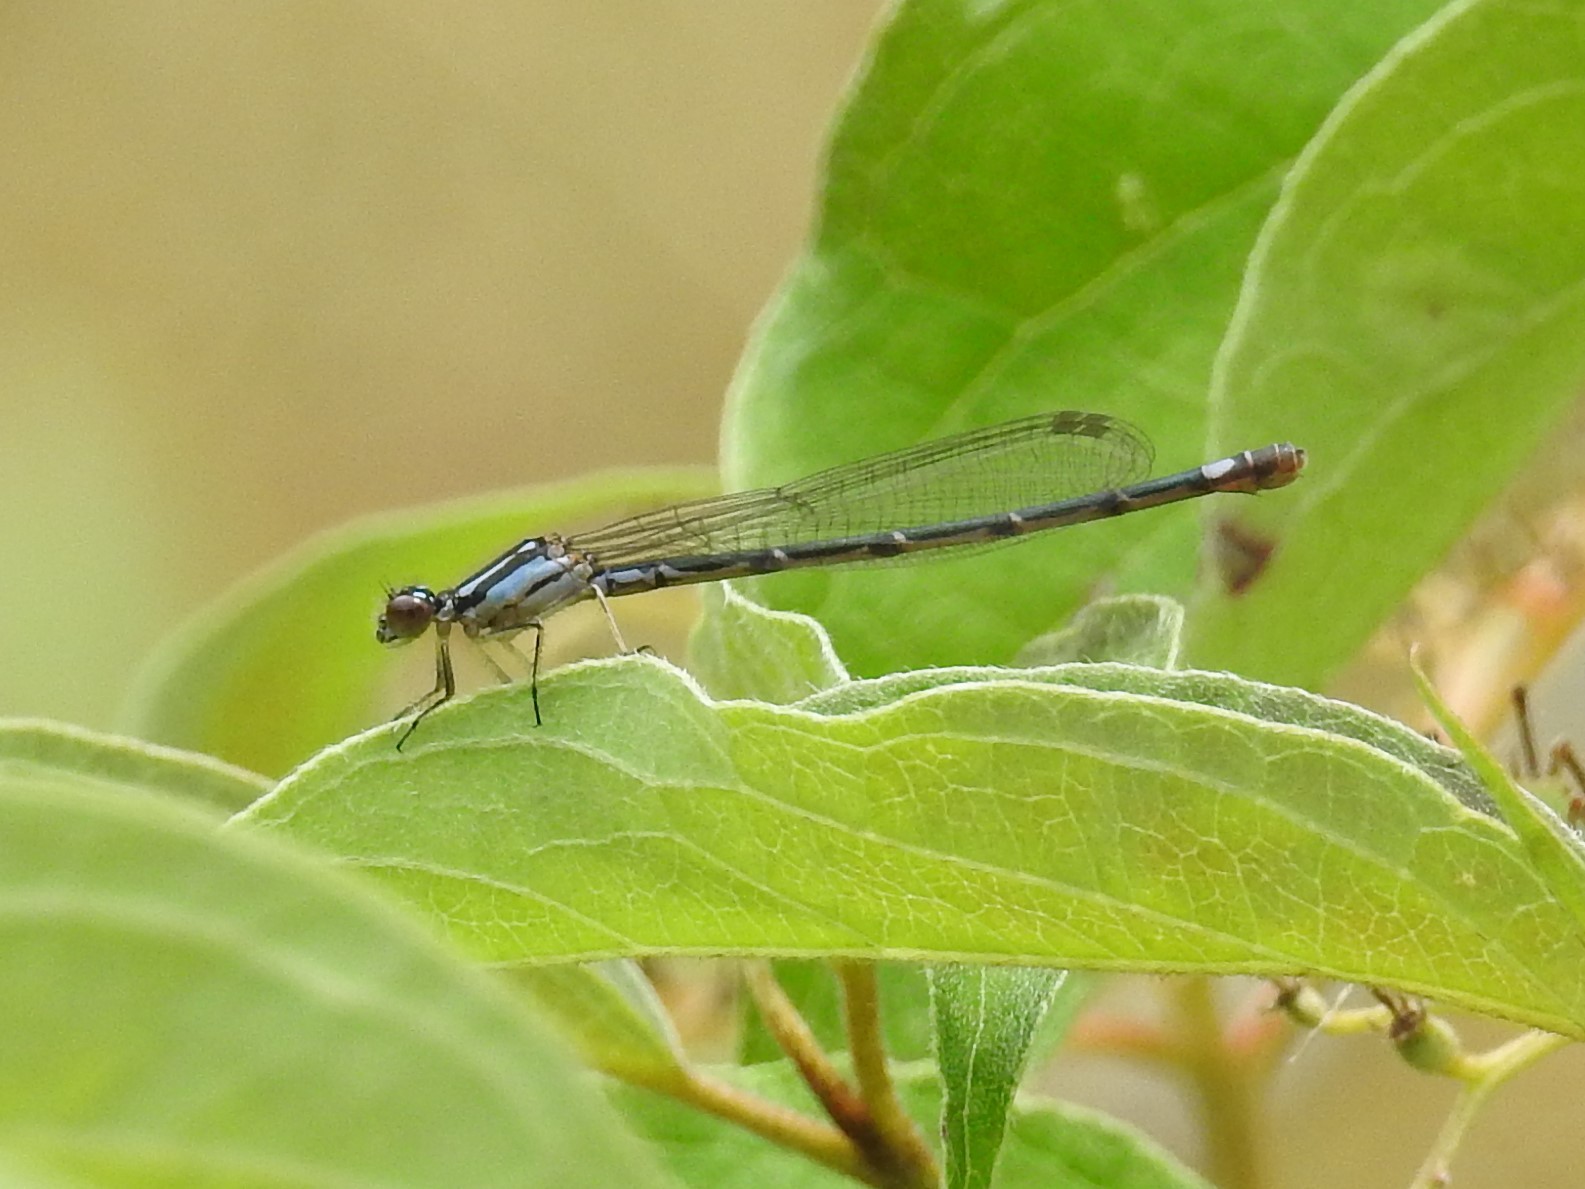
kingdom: Animalia
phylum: Arthropoda
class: Insecta
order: Odonata
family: Coenagrionidae
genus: Enallagma
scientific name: Enallagma geminatum
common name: Skimming bluet
